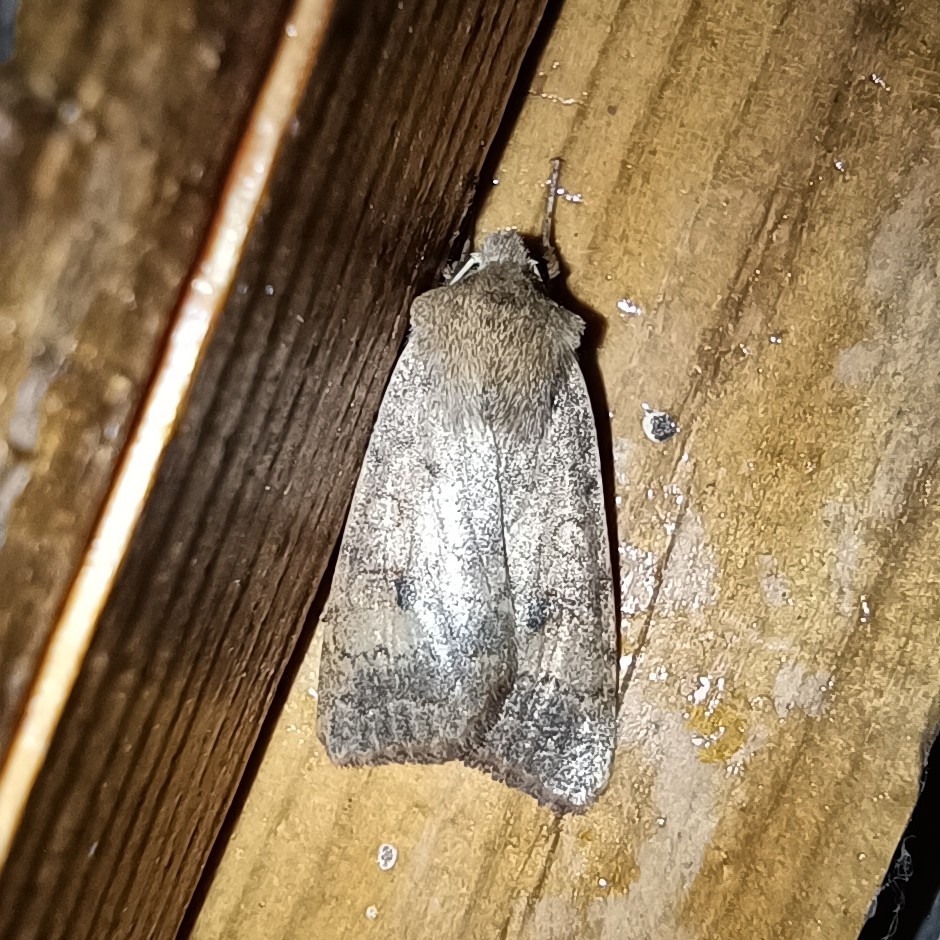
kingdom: Animalia
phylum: Arthropoda
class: Insecta
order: Lepidoptera
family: Noctuidae
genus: Sunira
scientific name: Sunira circellaris
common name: Brick
